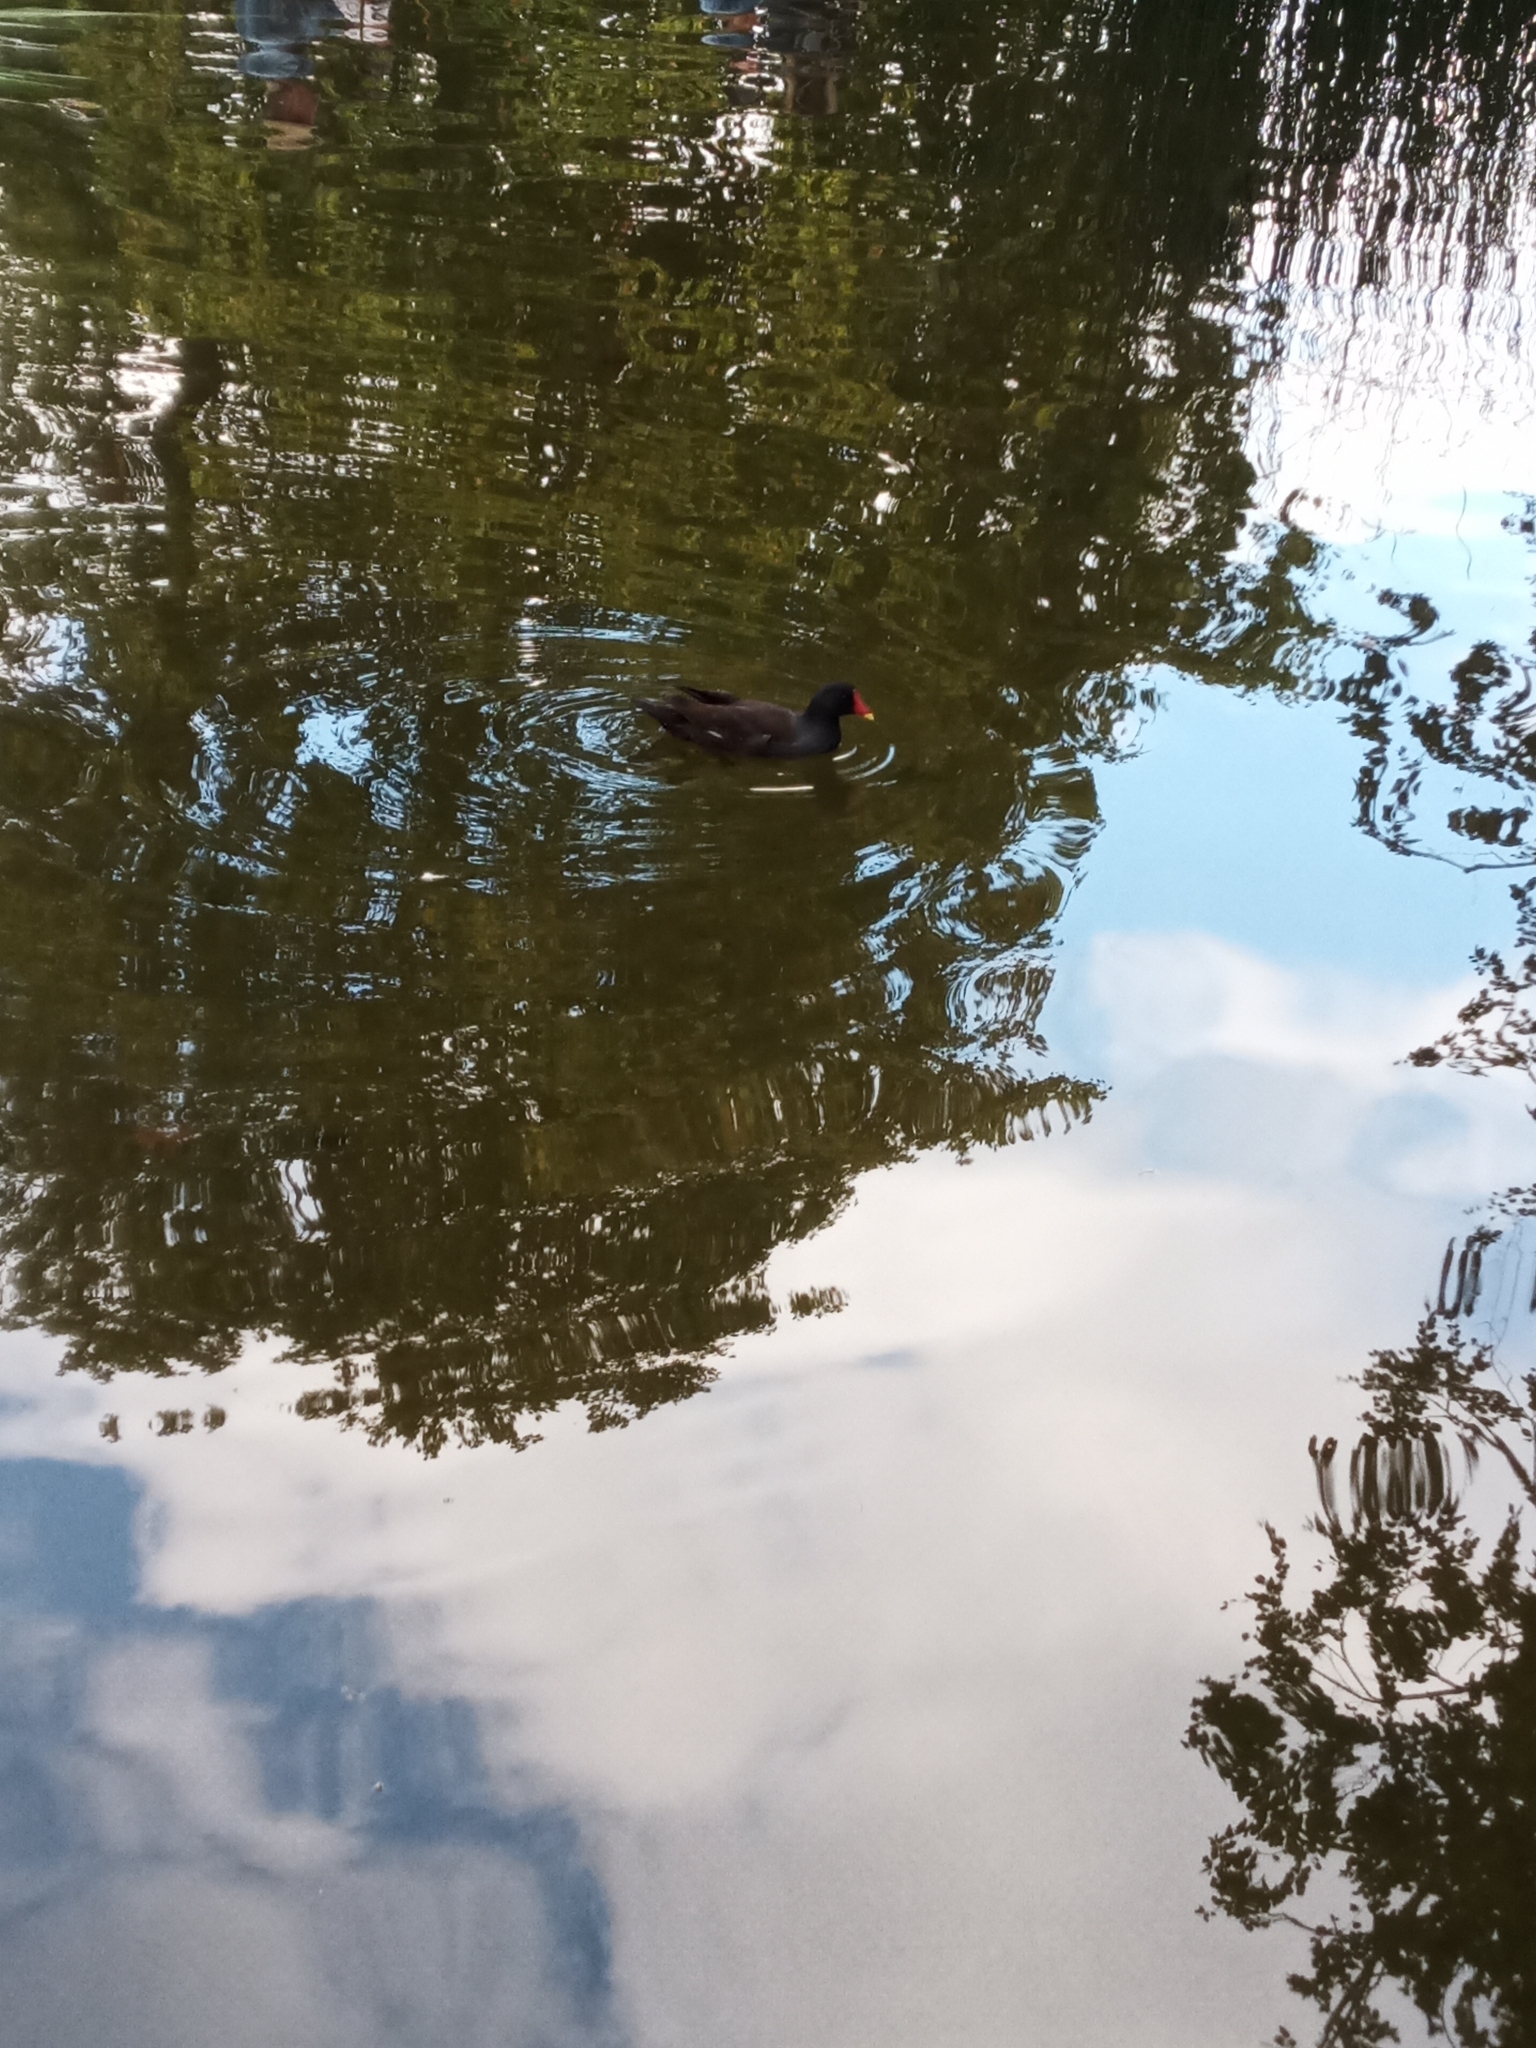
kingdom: Animalia
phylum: Chordata
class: Aves
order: Gruiformes
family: Rallidae
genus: Gallinula
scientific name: Gallinula chloropus
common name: Common moorhen
